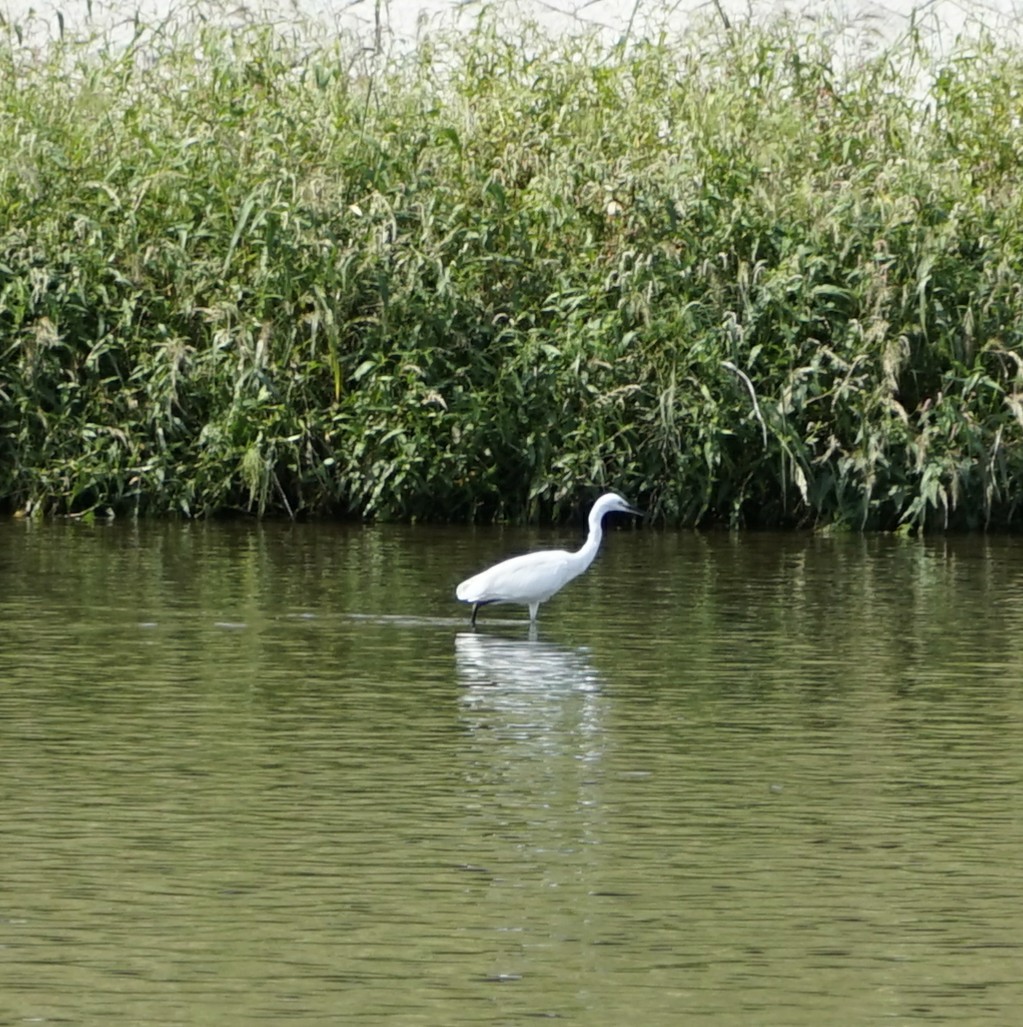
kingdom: Animalia
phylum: Chordata
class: Aves
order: Pelecaniformes
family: Ardeidae
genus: Egretta
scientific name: Egretta garzetta
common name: Little egret
